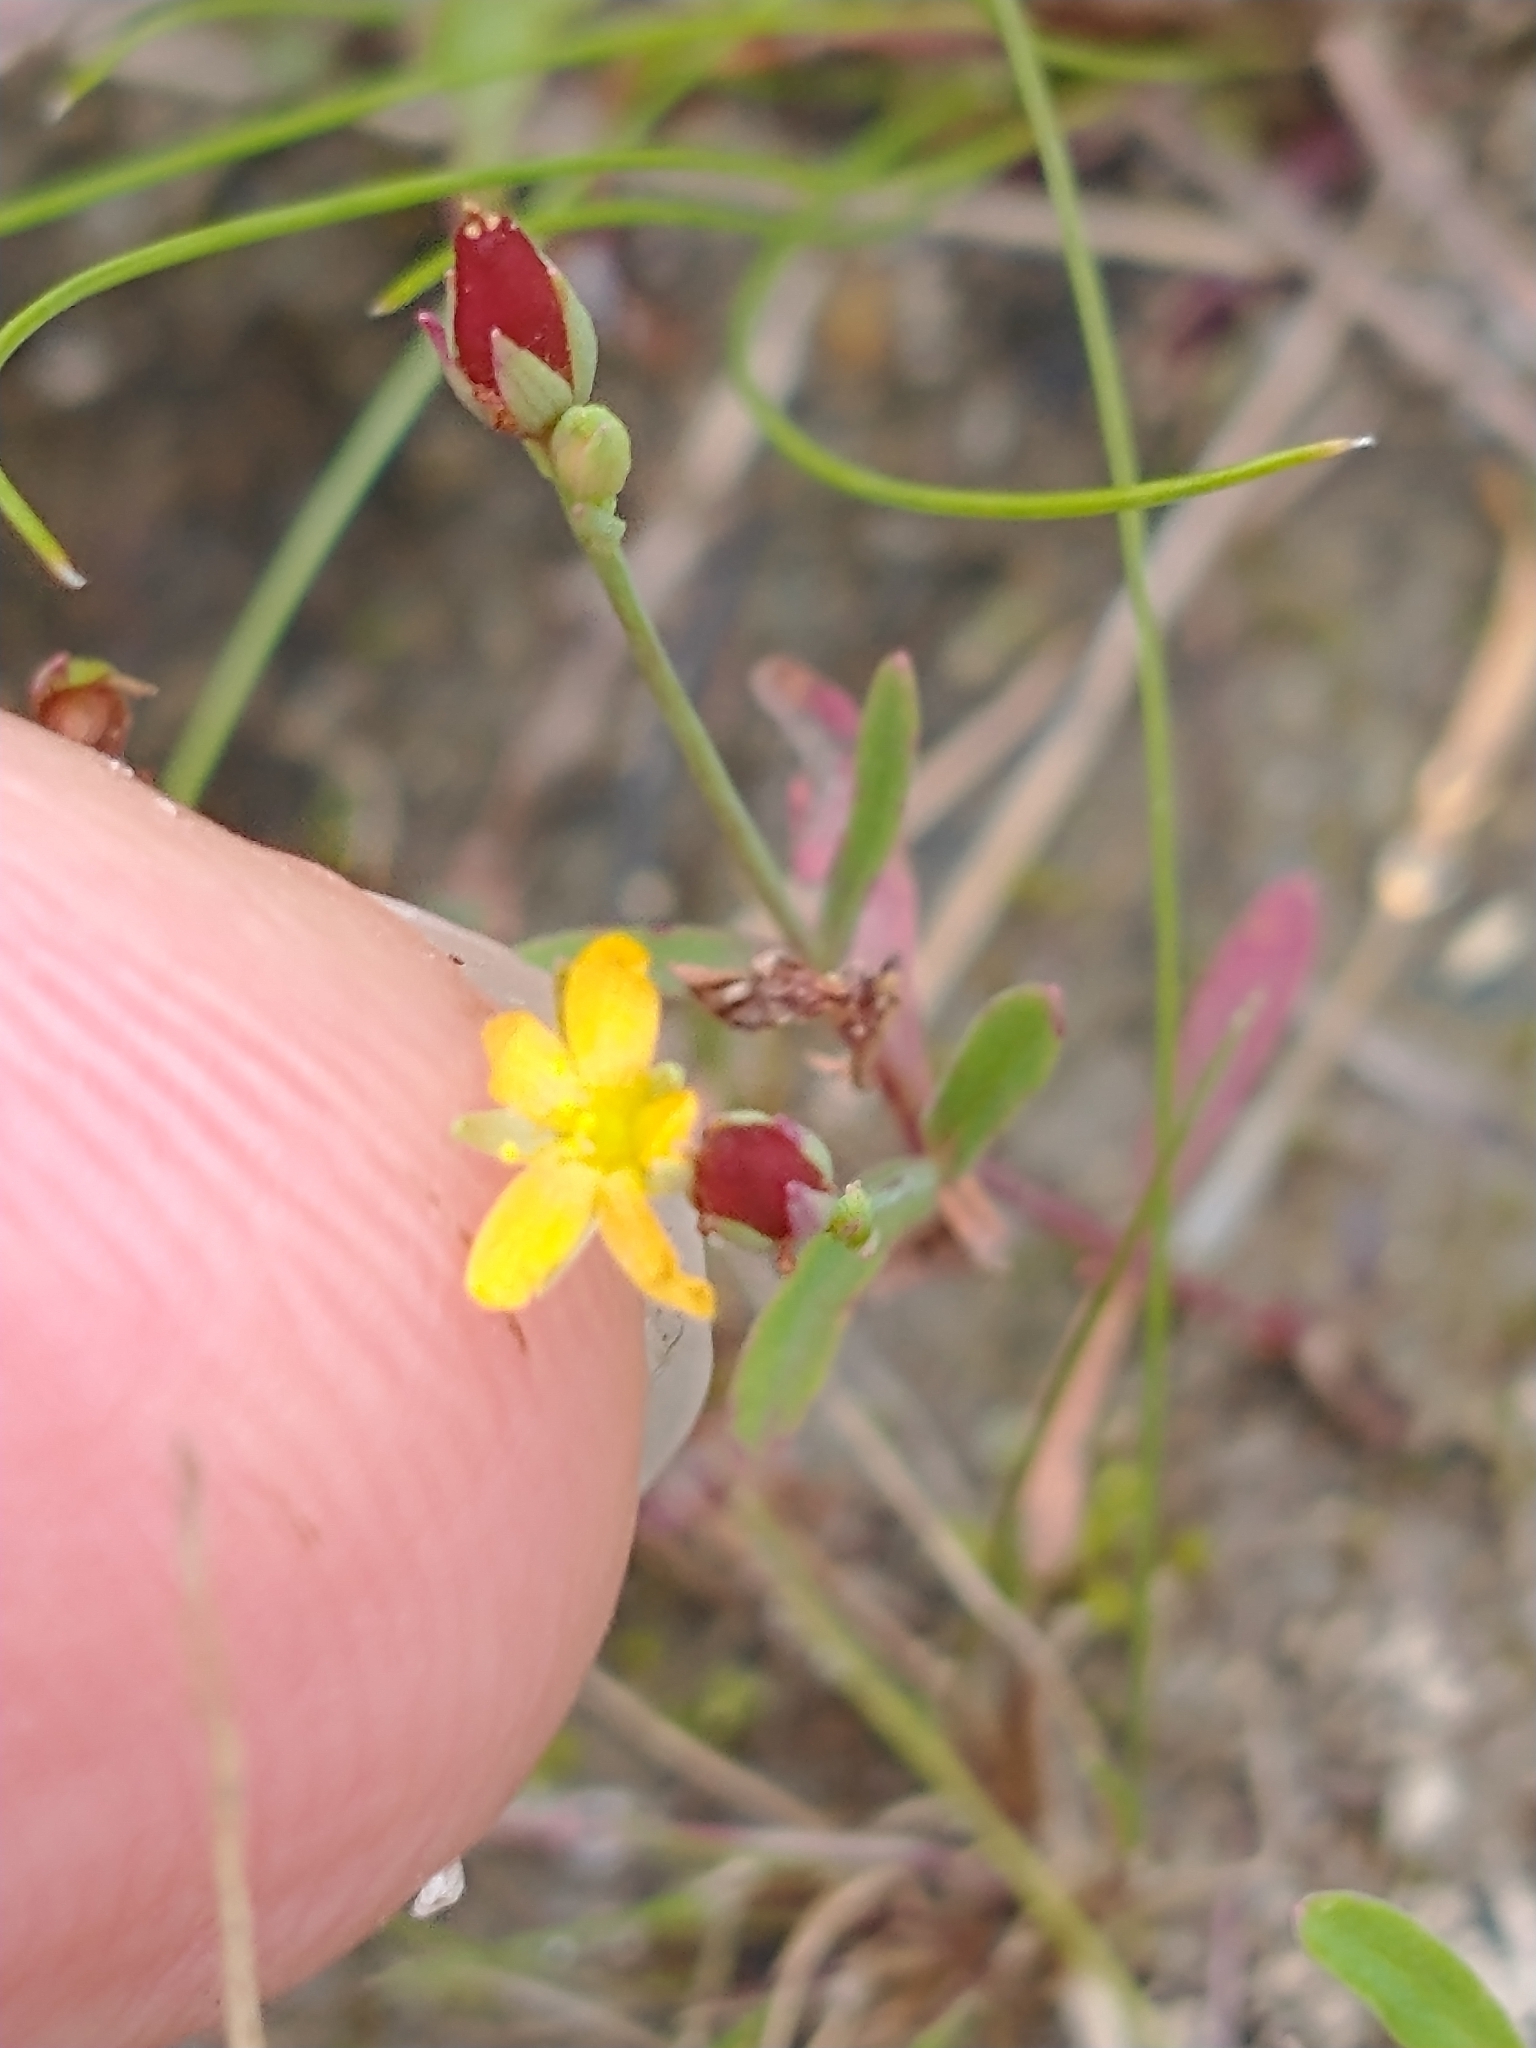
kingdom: Plantae
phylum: Tracheophyta
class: Magnoliopsida
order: Malpighiales
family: Hypericaceae
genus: Hypericum
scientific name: Hypericum canadense
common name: Irish st. john's-wort
